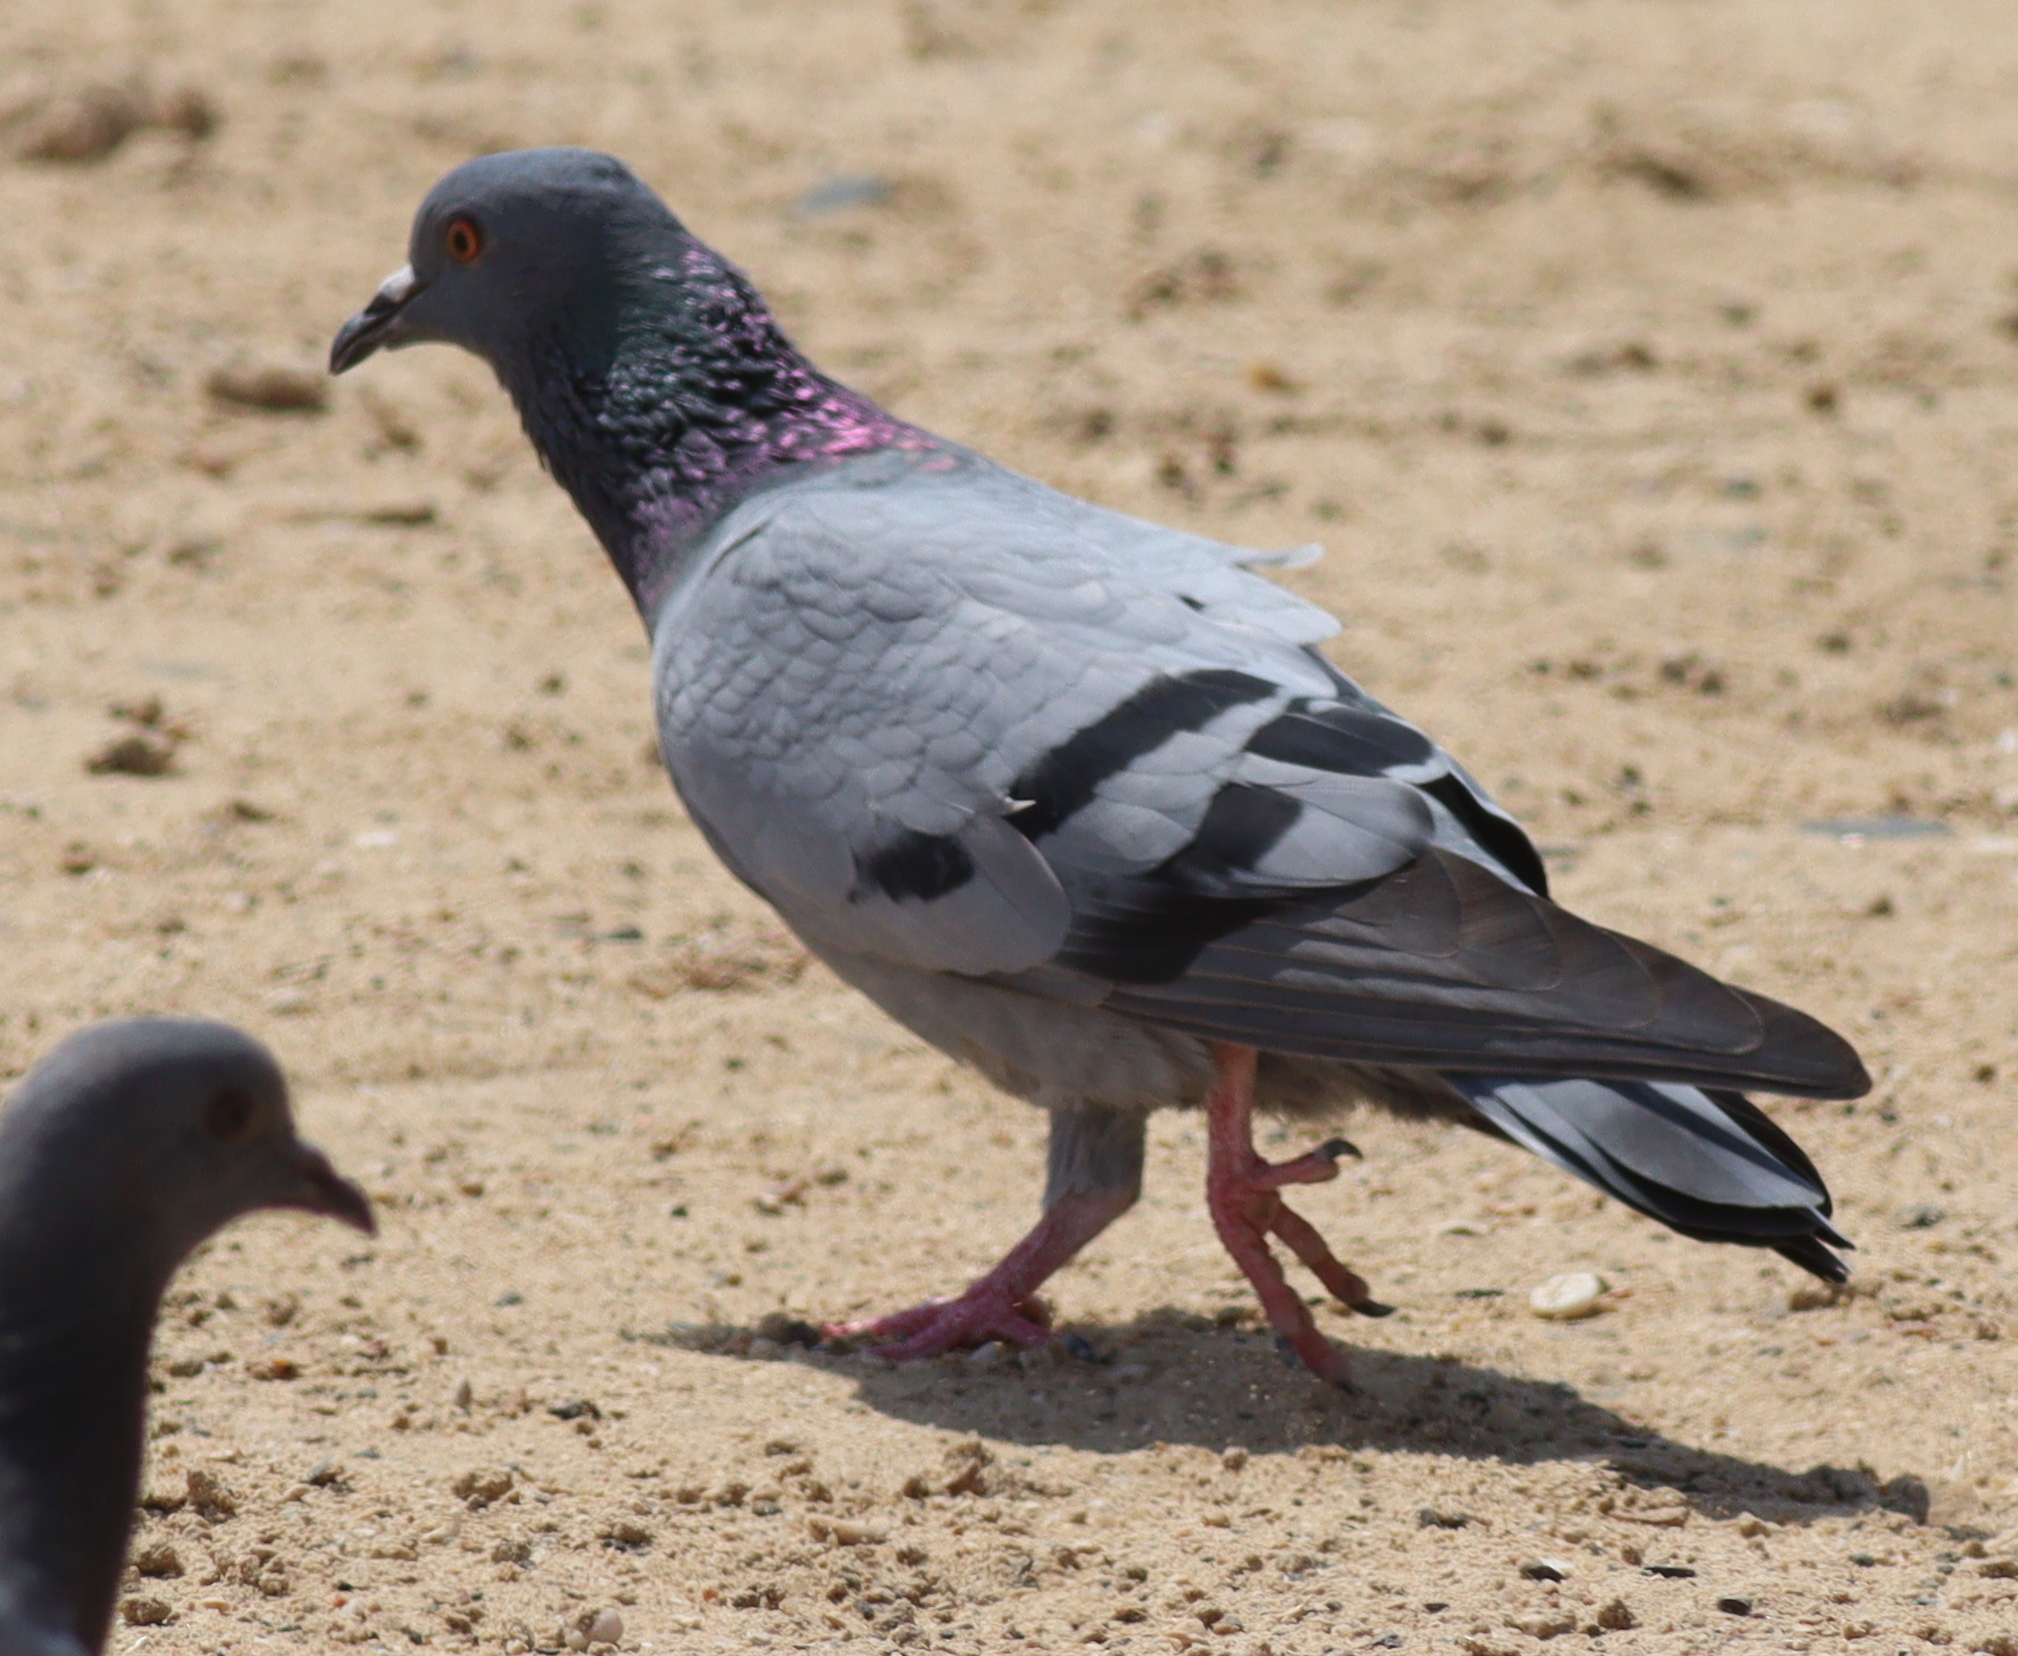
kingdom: Animalia
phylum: Chordata
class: Aves
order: Columbiformes
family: Columbidae
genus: Columba
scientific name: Columba livia
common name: Rock pigeon
